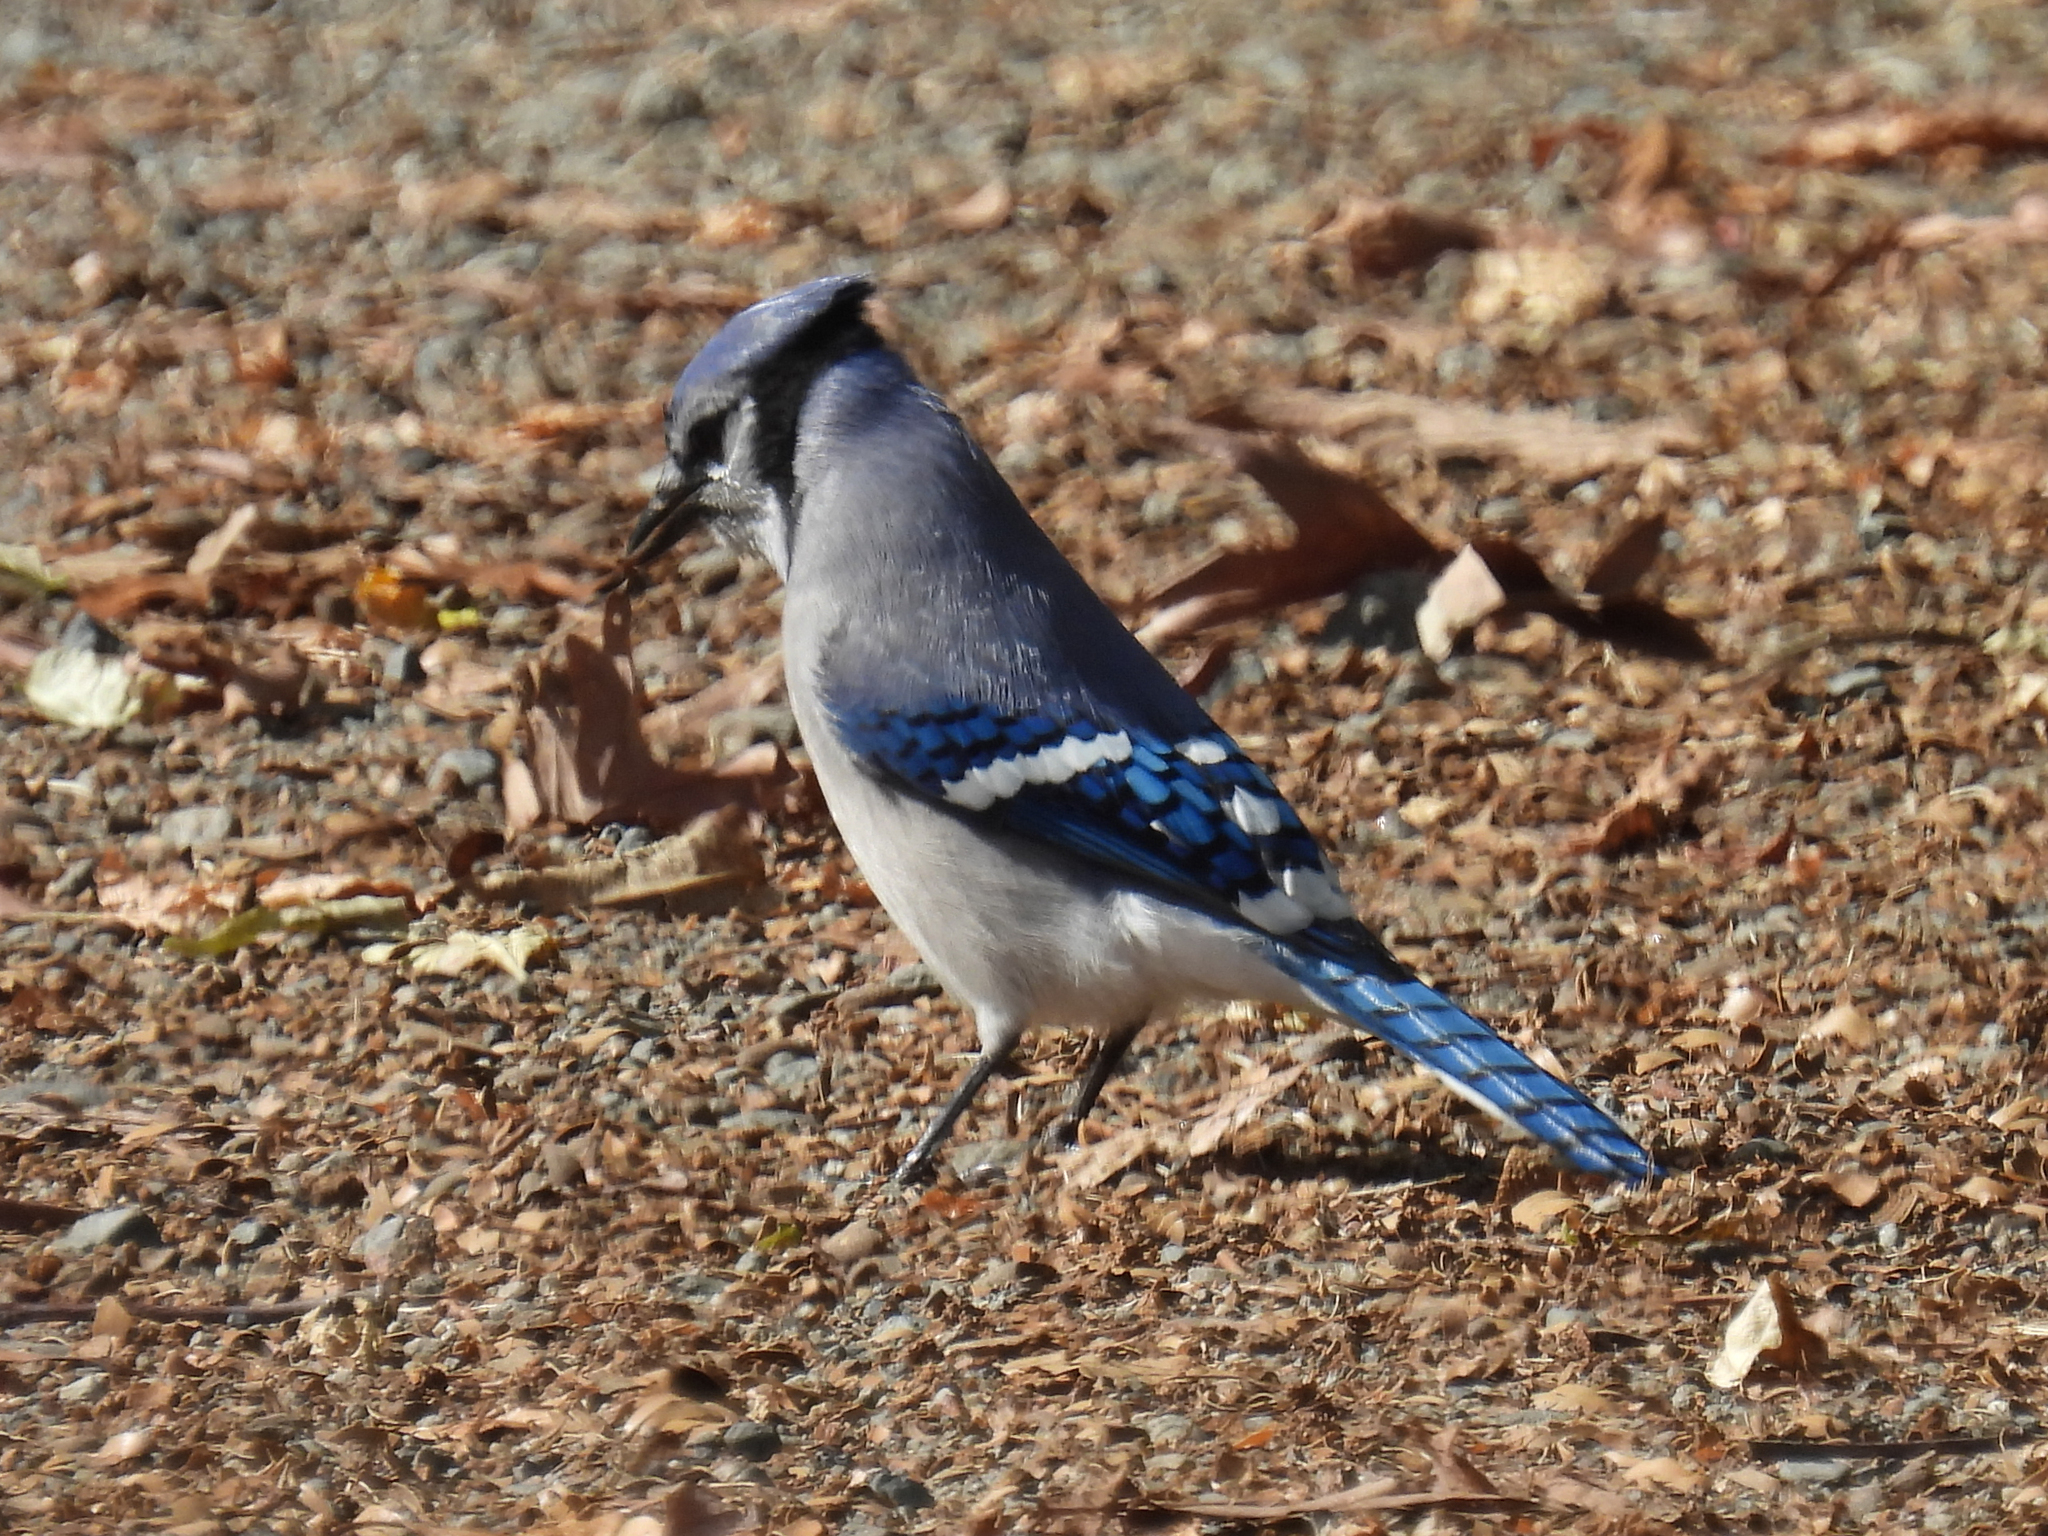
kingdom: Animalia
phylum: Chordata
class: Aves
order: Passeriformes
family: Corvidae
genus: Cyanocitta
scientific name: Cyanocitta cristata
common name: Blue jay
